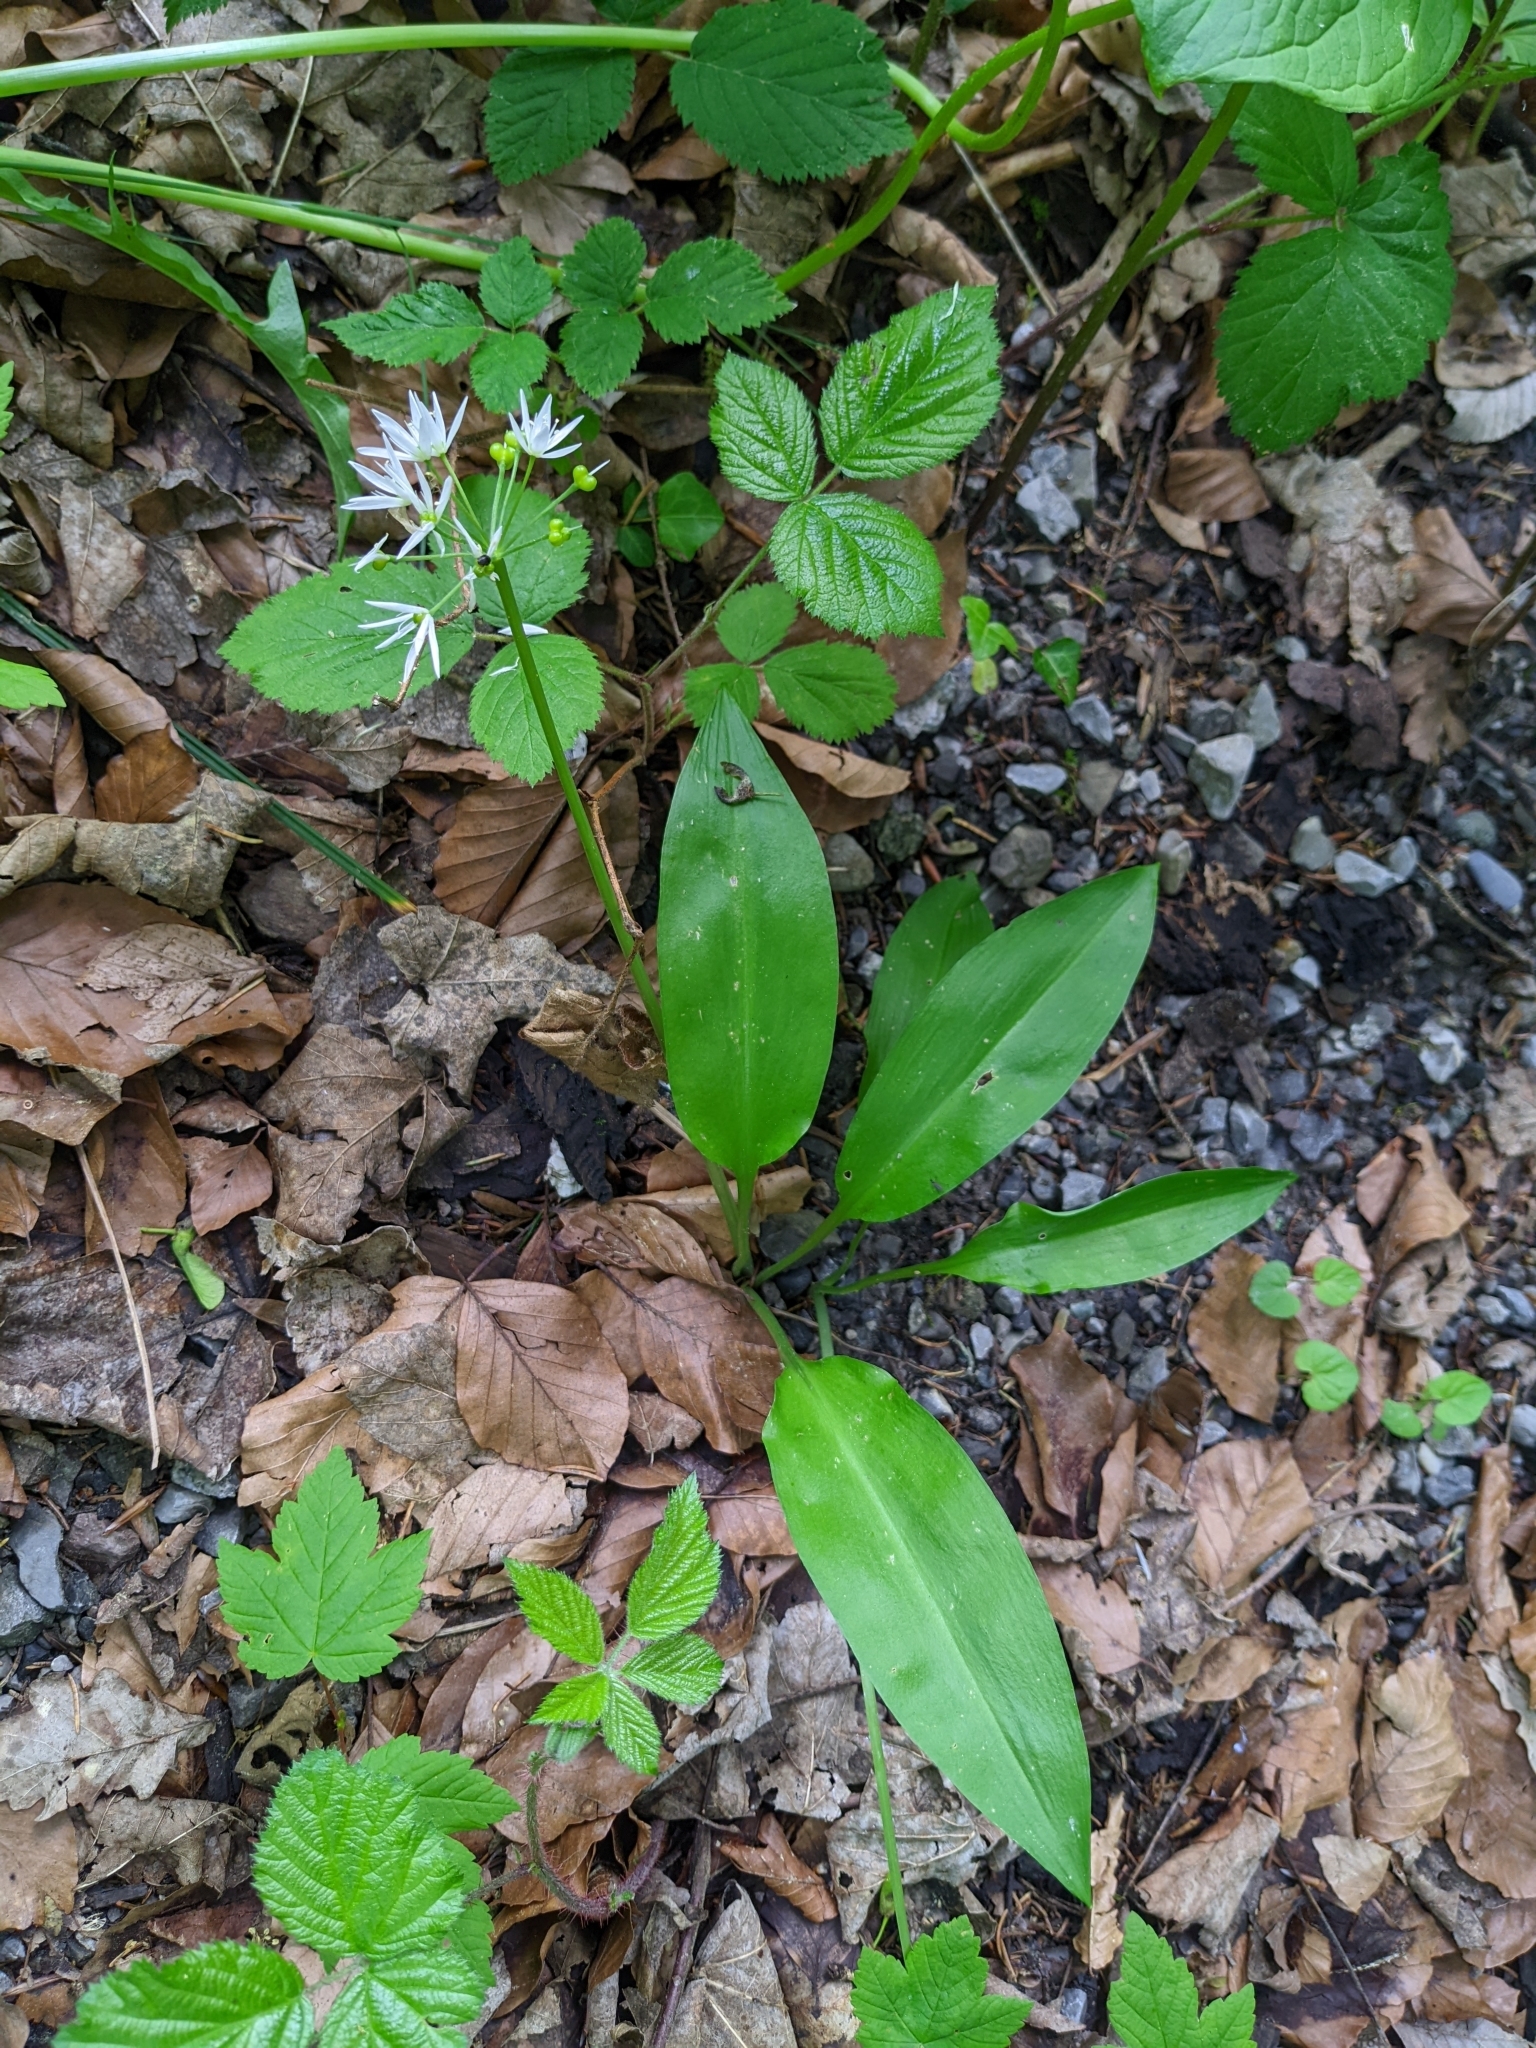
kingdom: Plantae
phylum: Tracheophyta
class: Liliopsida
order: Asparagales
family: Amaryllidaceae
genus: Allium
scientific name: Allium ursinum
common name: Ramsons
